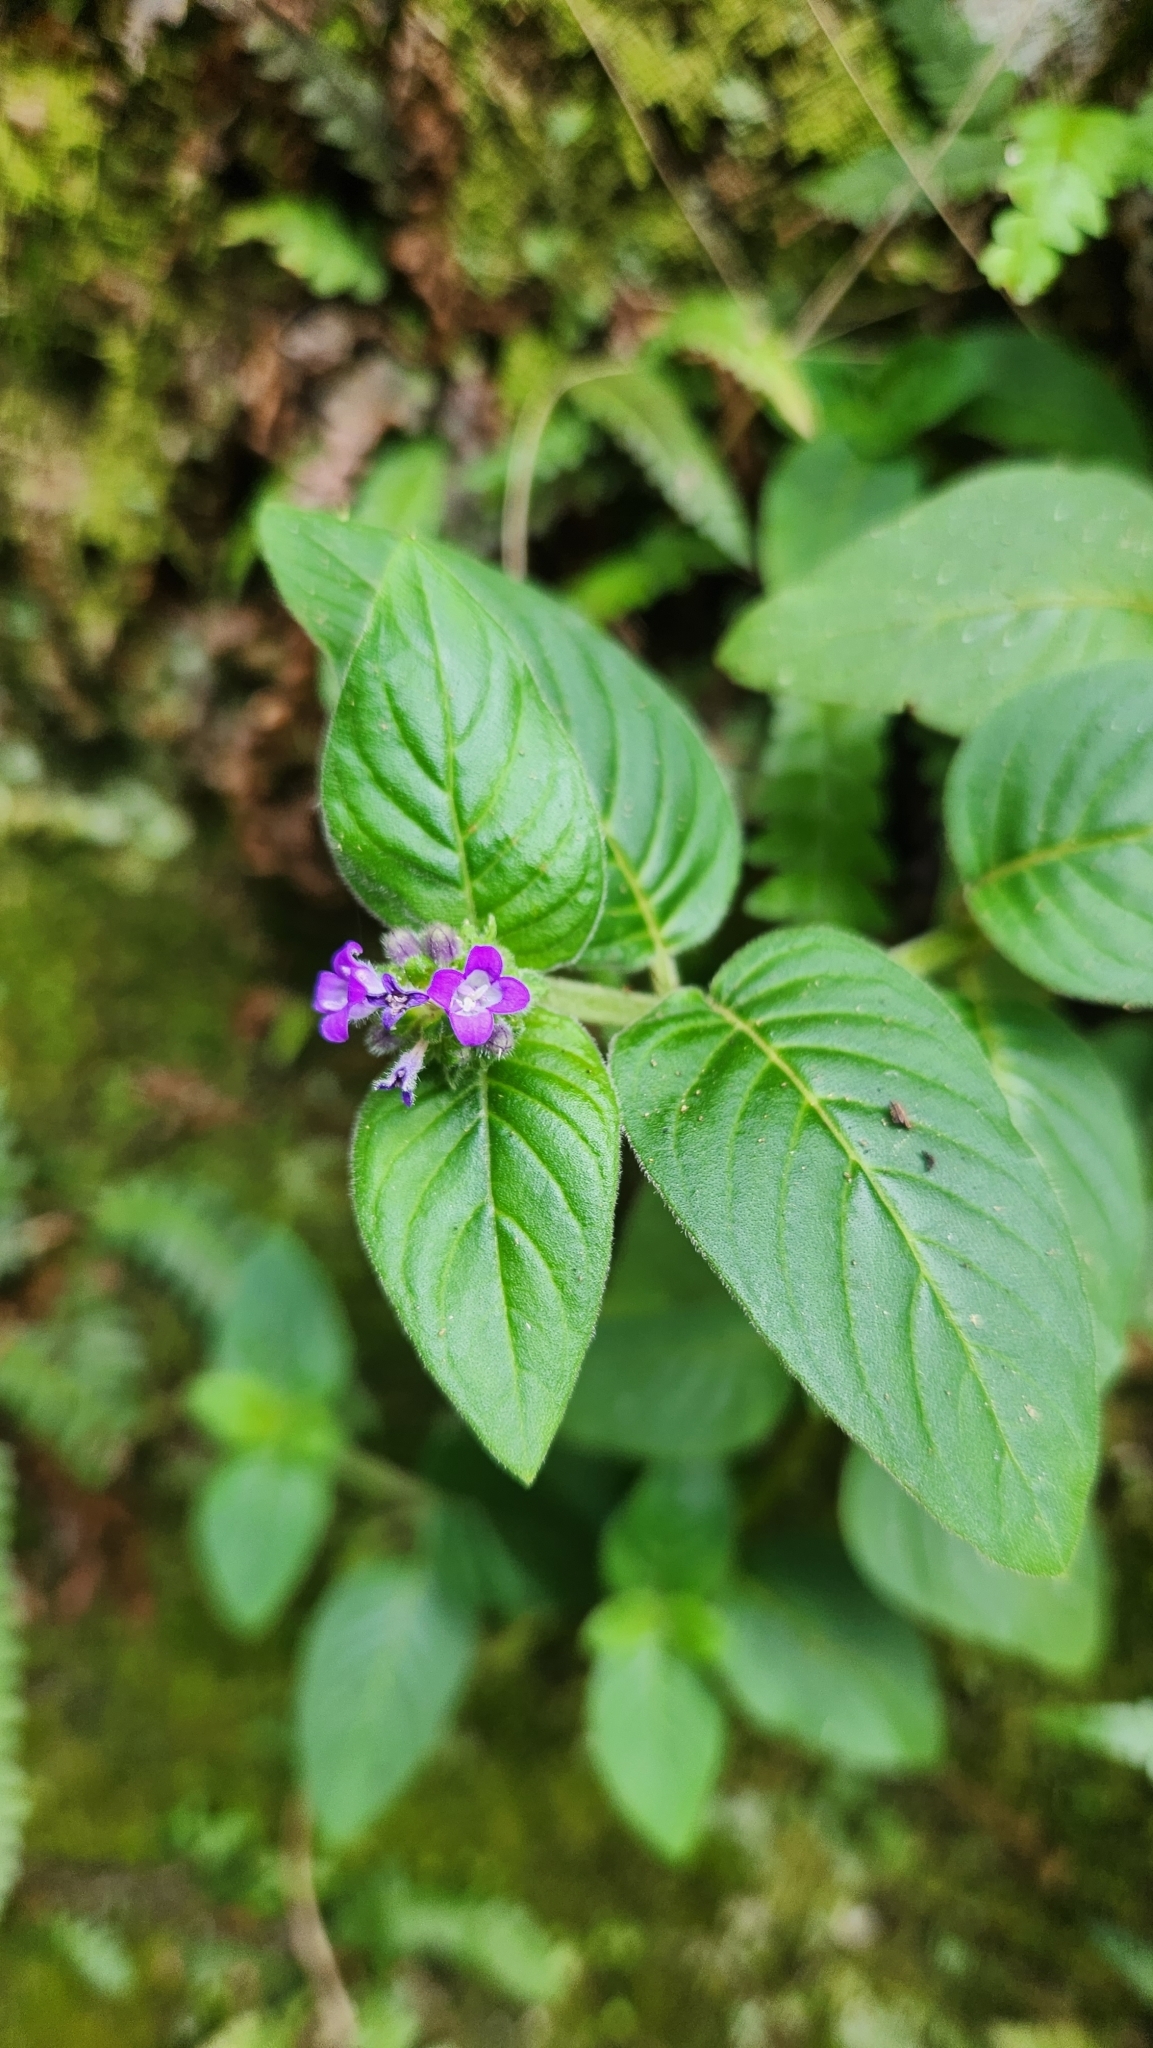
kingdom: Plantae
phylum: Tracheophyta
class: Magnoliopsida
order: Gentianales
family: Rubiaceae
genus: Coccocypselum
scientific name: Coccocypselum lanceolatum
